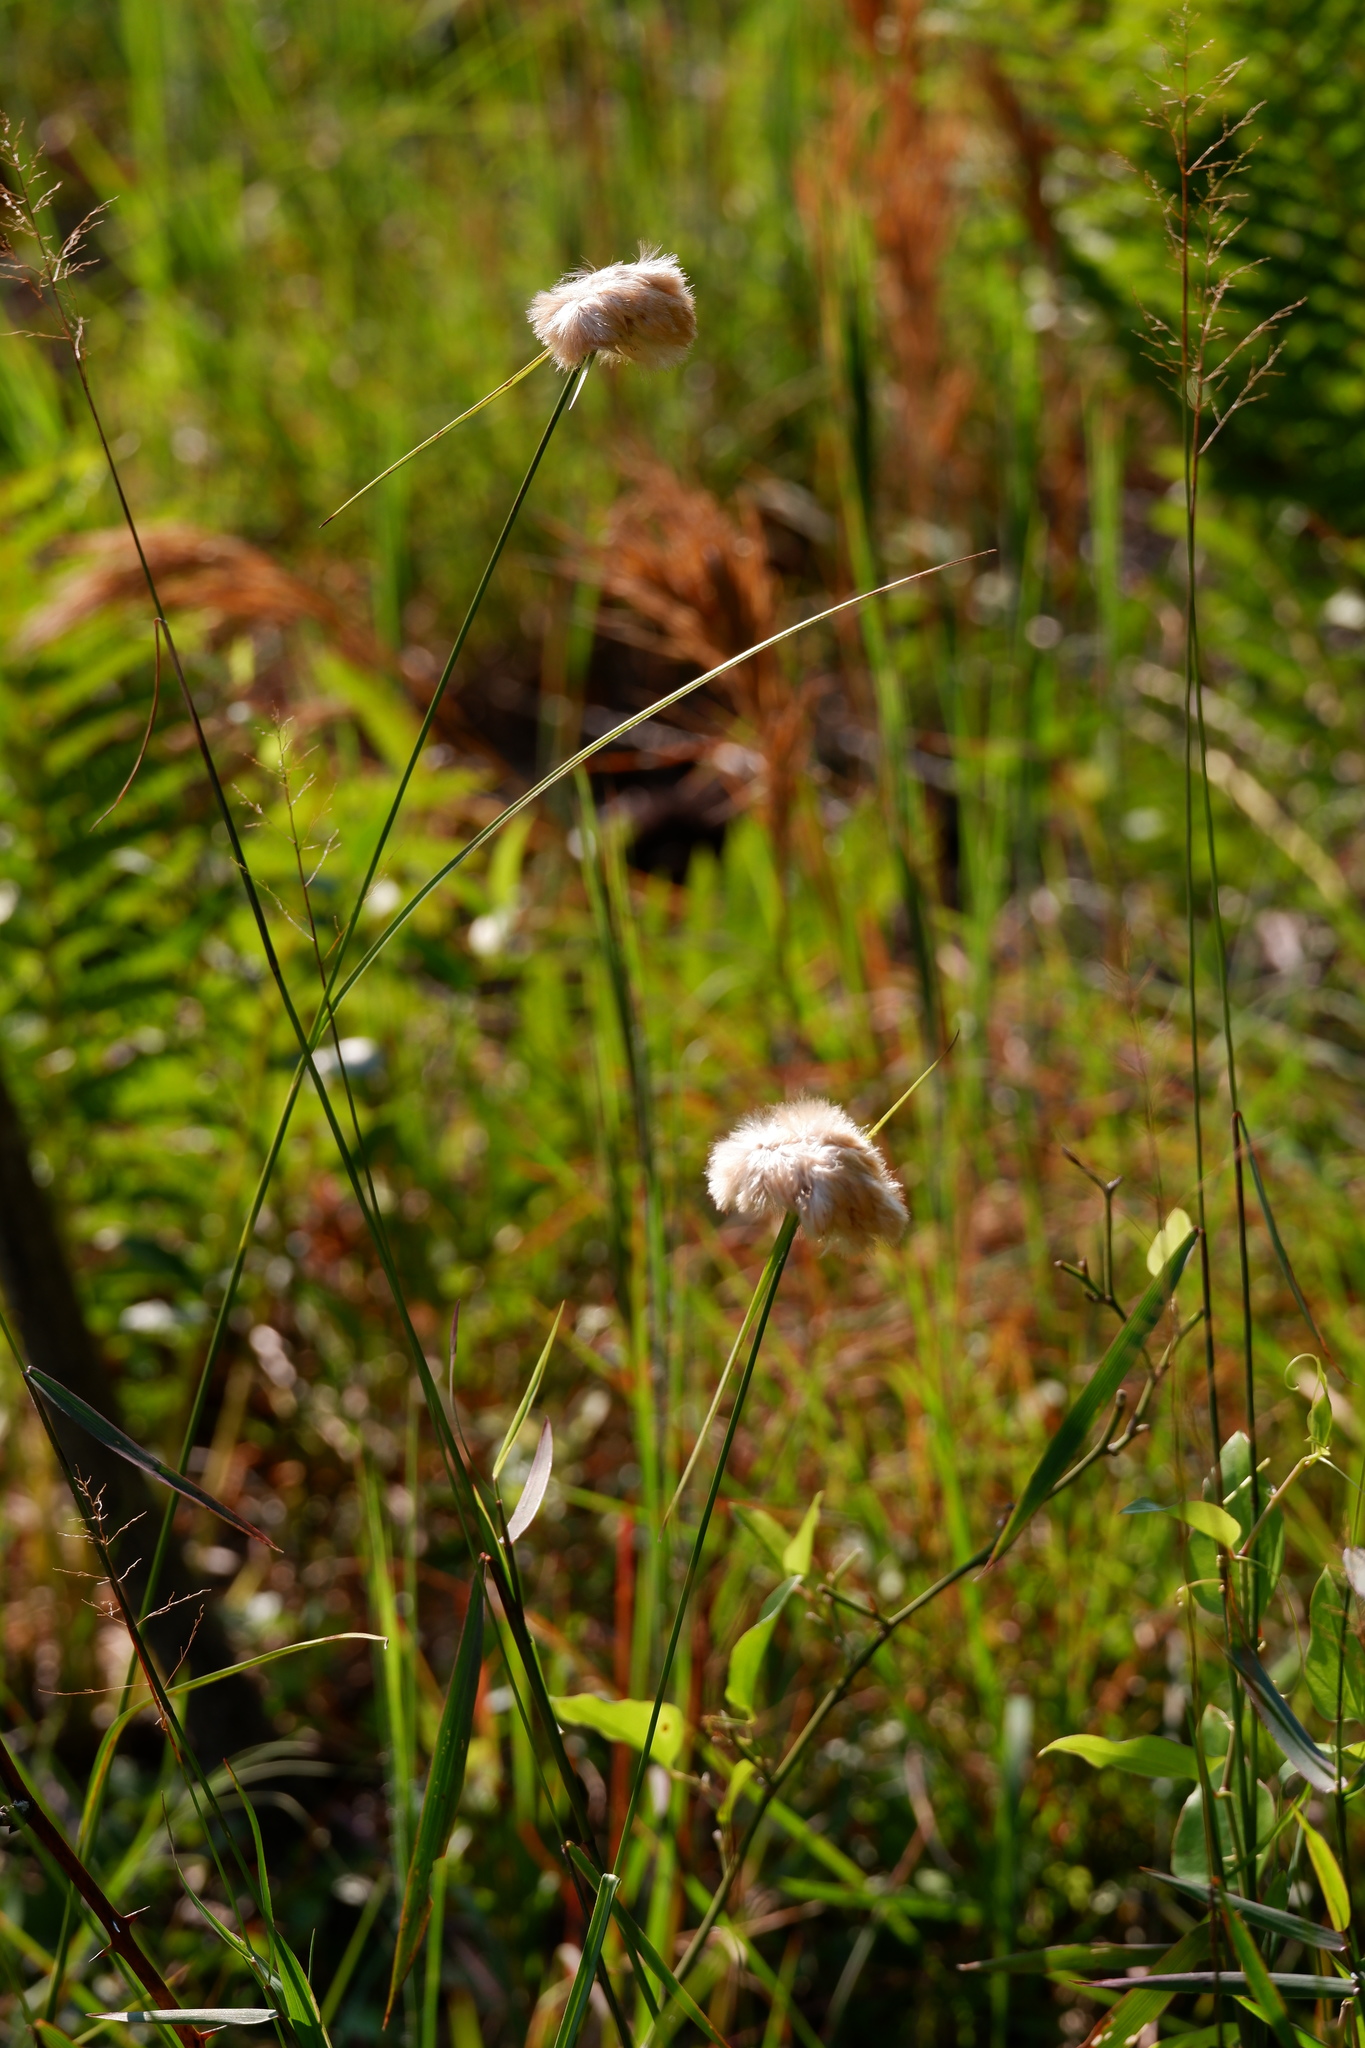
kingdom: Plantae
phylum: Tracheophyta
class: Liliopsida
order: Poales
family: Cyperaceae
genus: Eriophorum
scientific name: Eriophorum virginicum
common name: Tawny cottongrass
